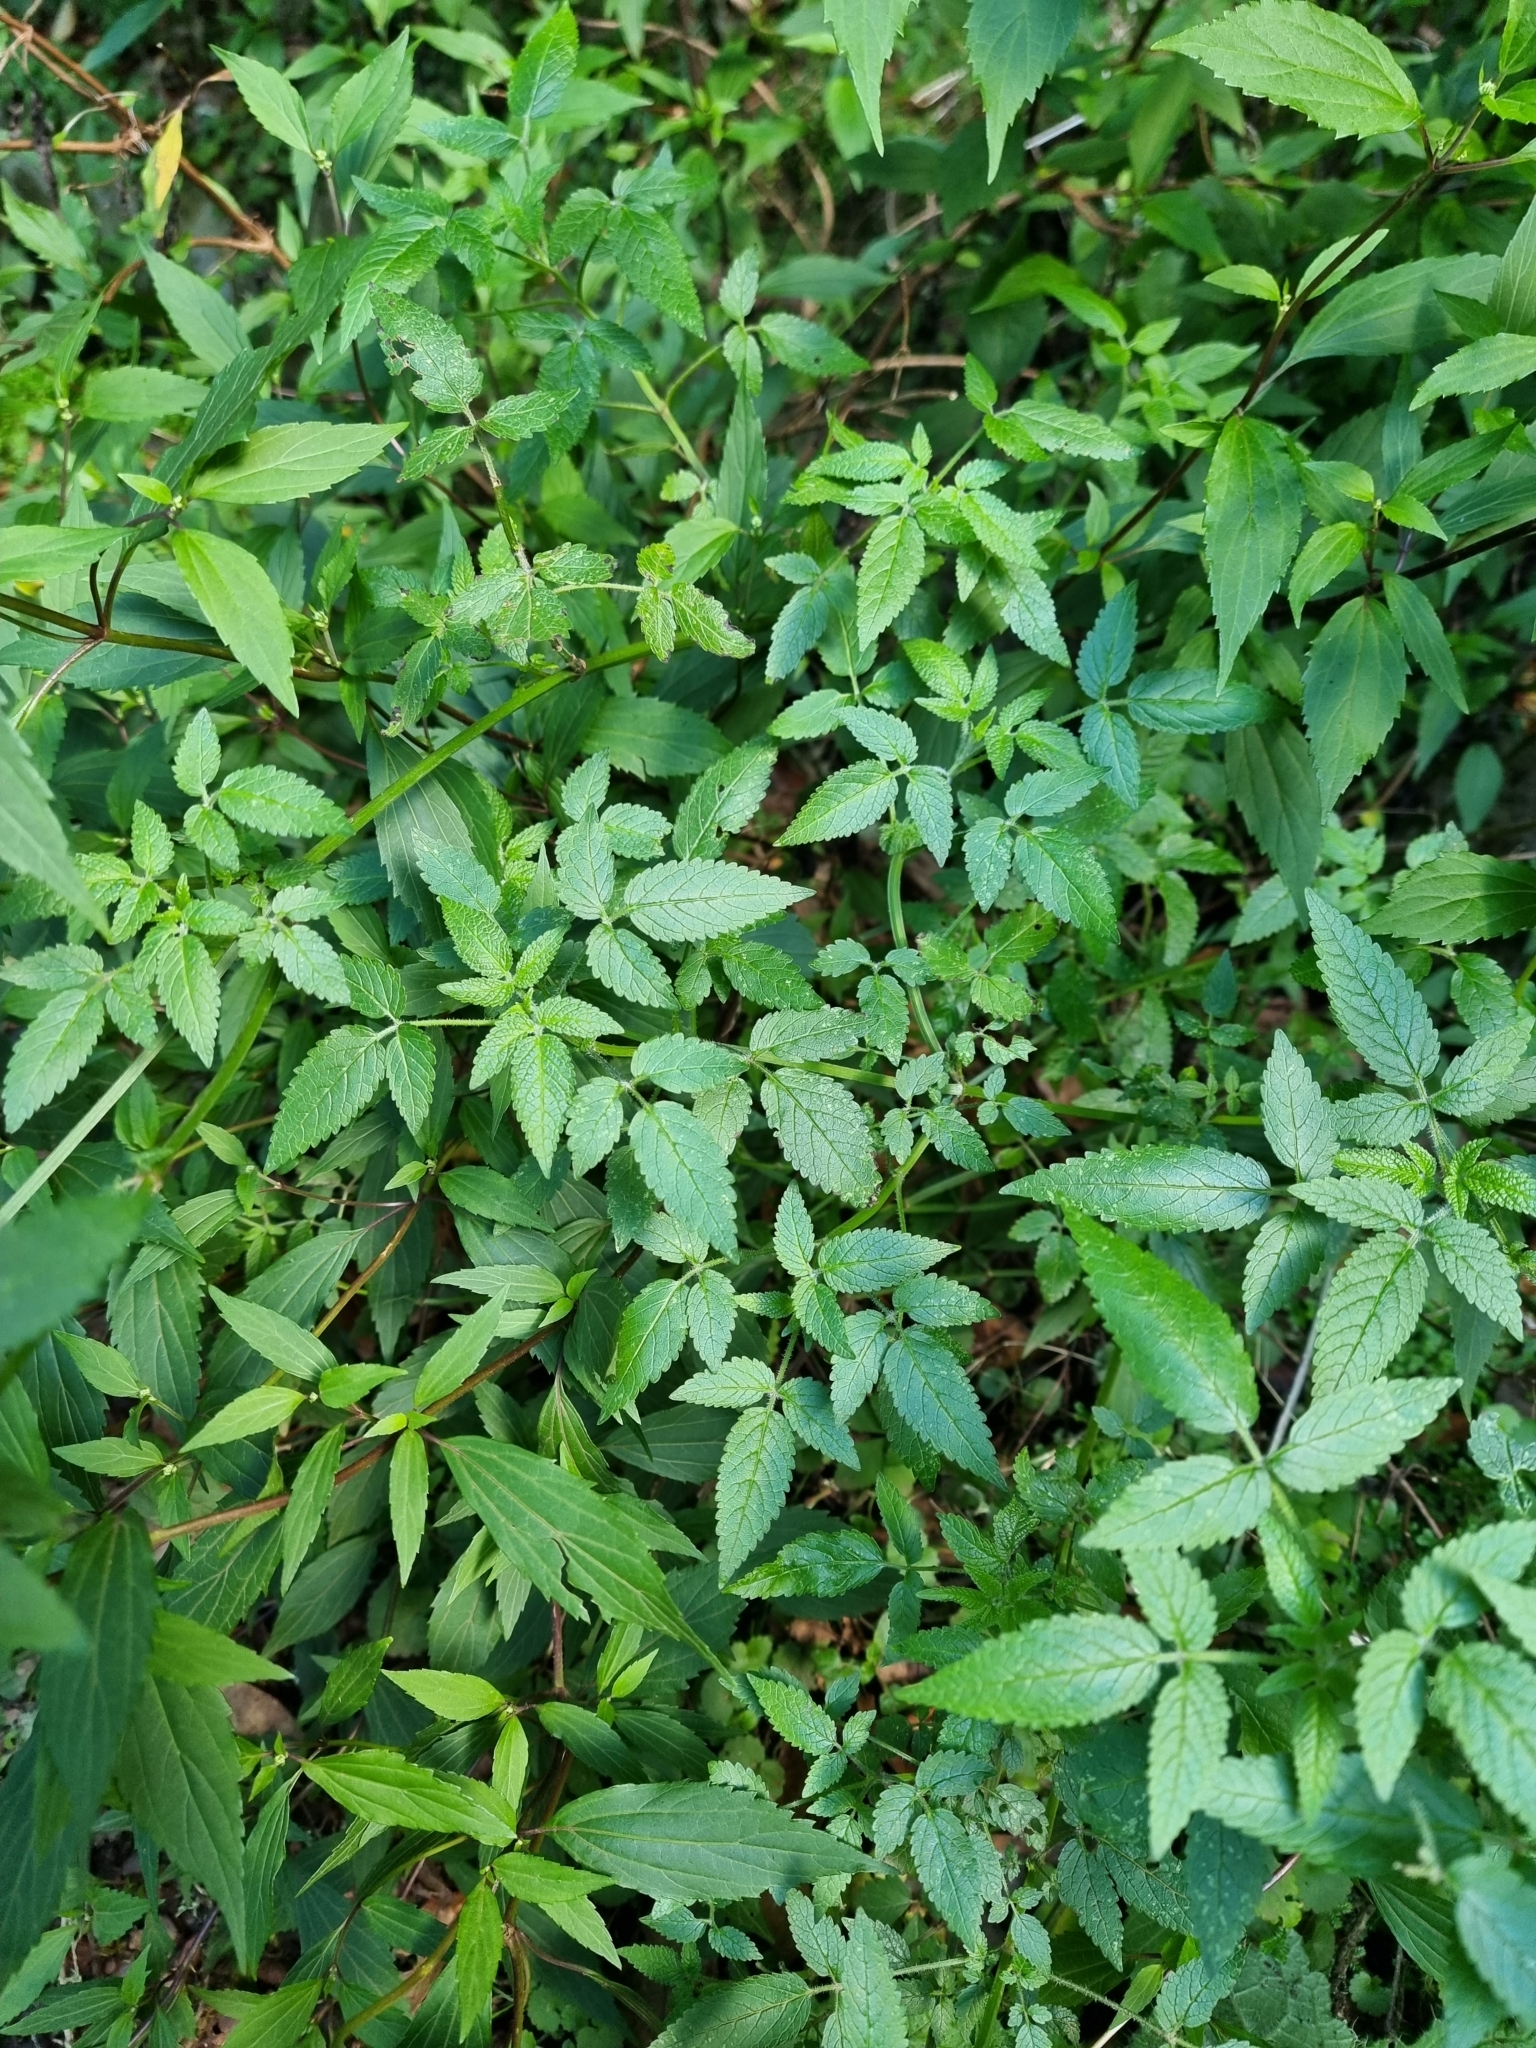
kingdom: Plantae
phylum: Tracheophyta
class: Magnoliopsida
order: Lamiales
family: Lamiaceae
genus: Cedronella
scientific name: Cedronella canariensis
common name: Canary islands balm
